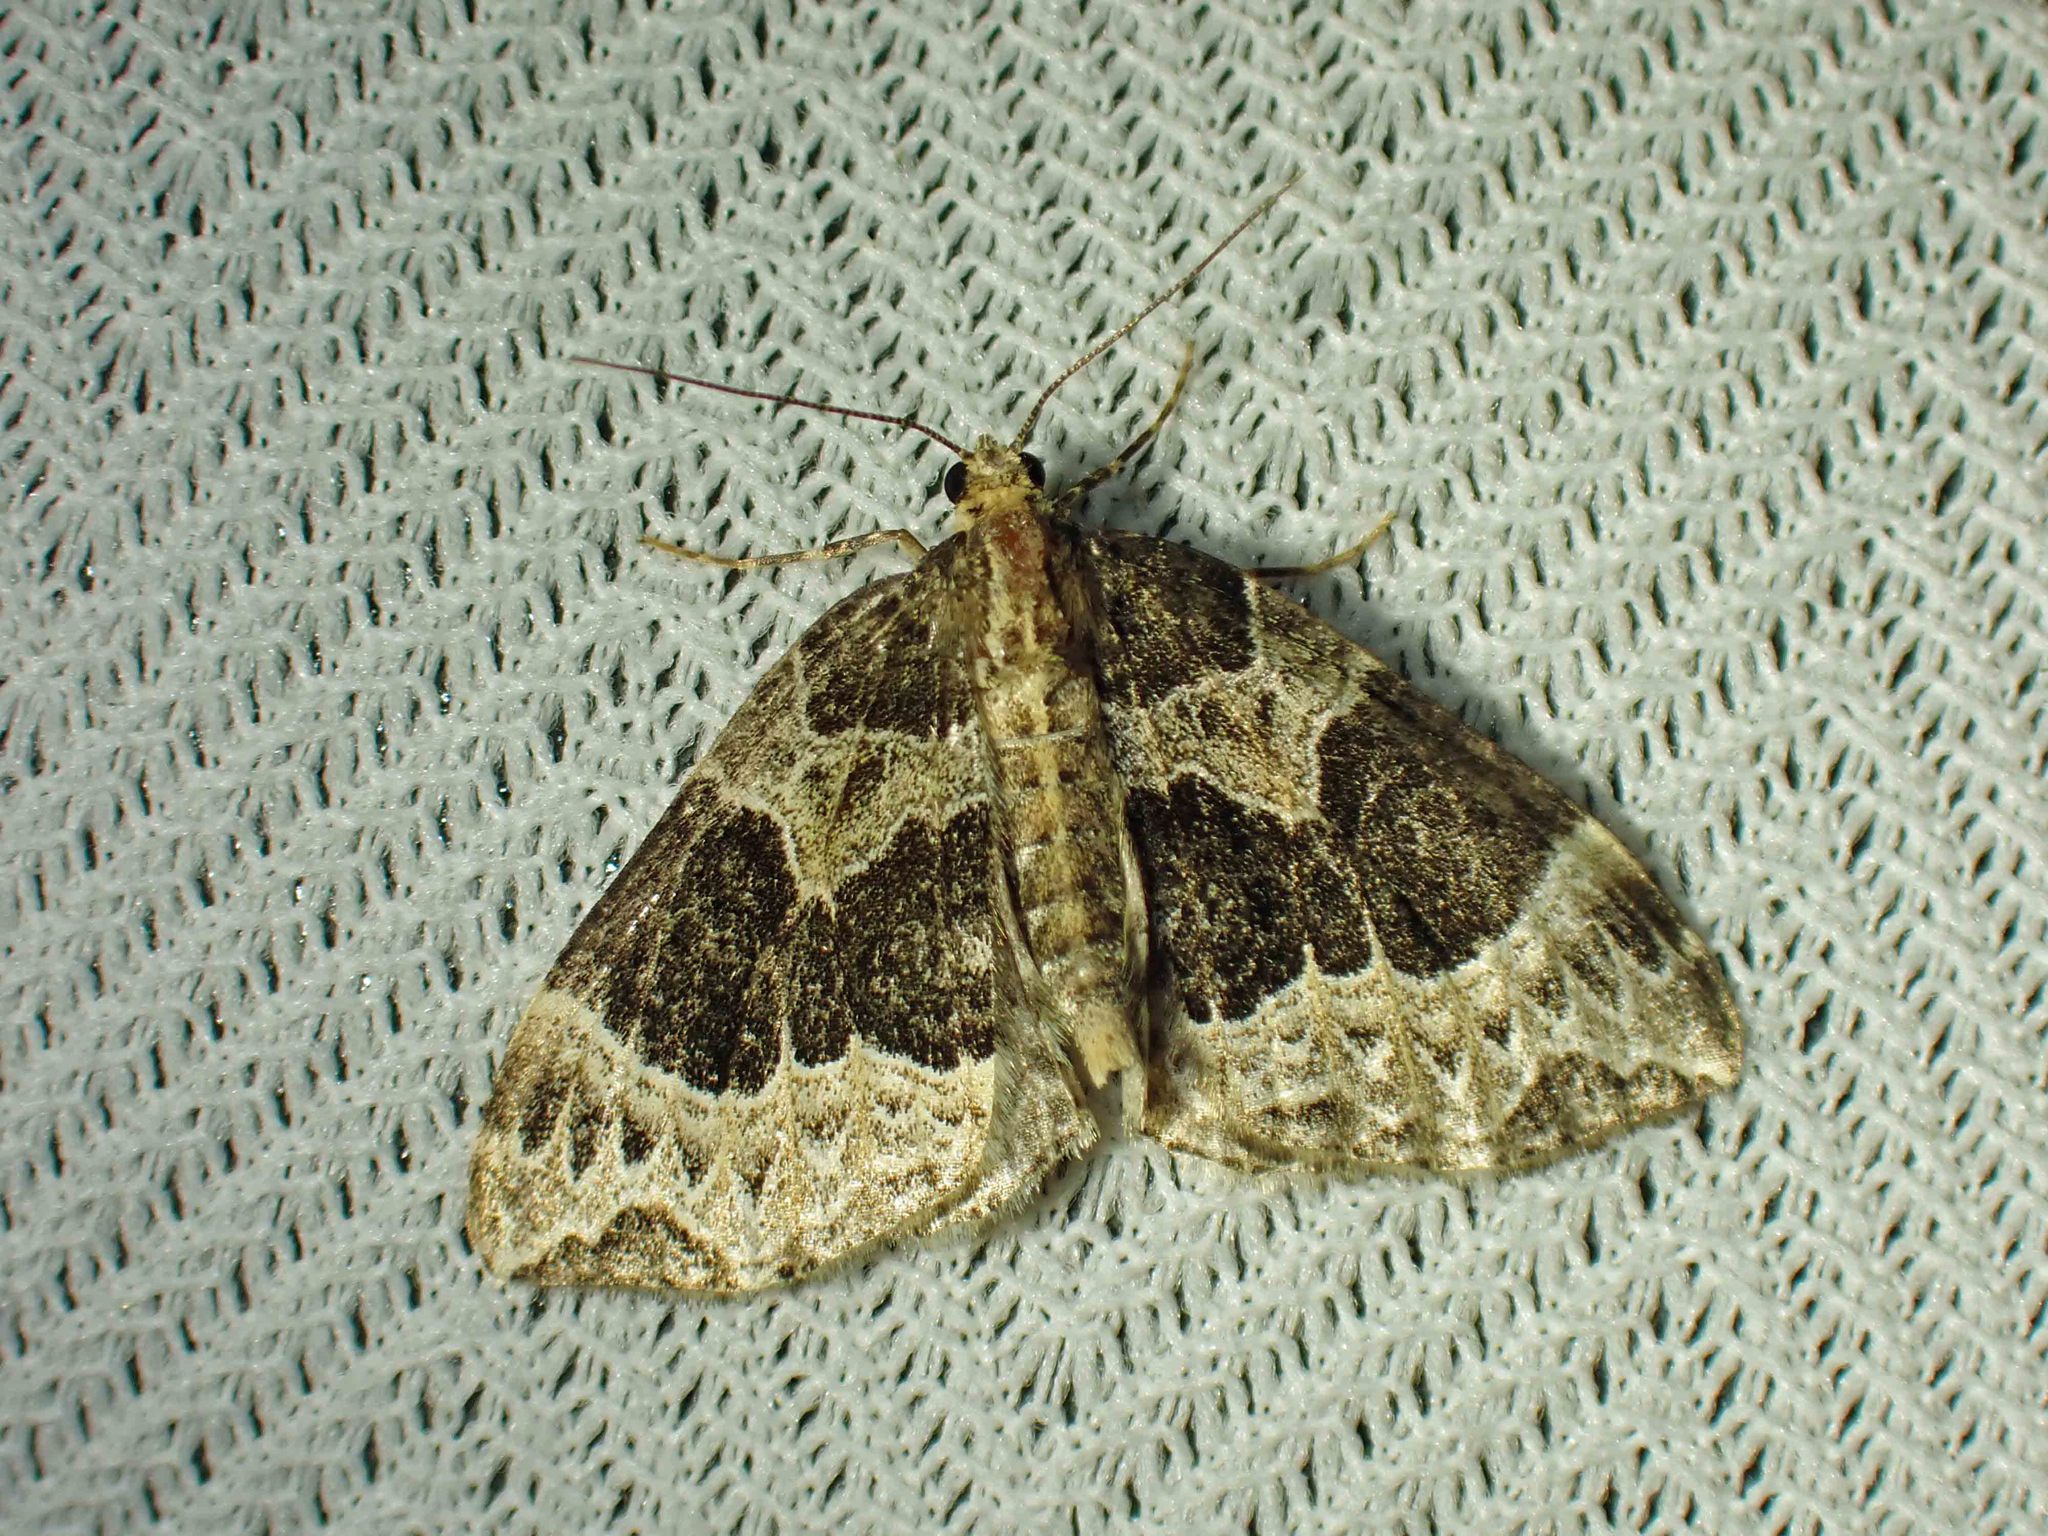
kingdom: Animalia
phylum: Arthropoda
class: Insecta
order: Lepidoptera
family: Geometridae
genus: Ecliptopera
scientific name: Ecliptopera silaceata
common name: Small phoenix
